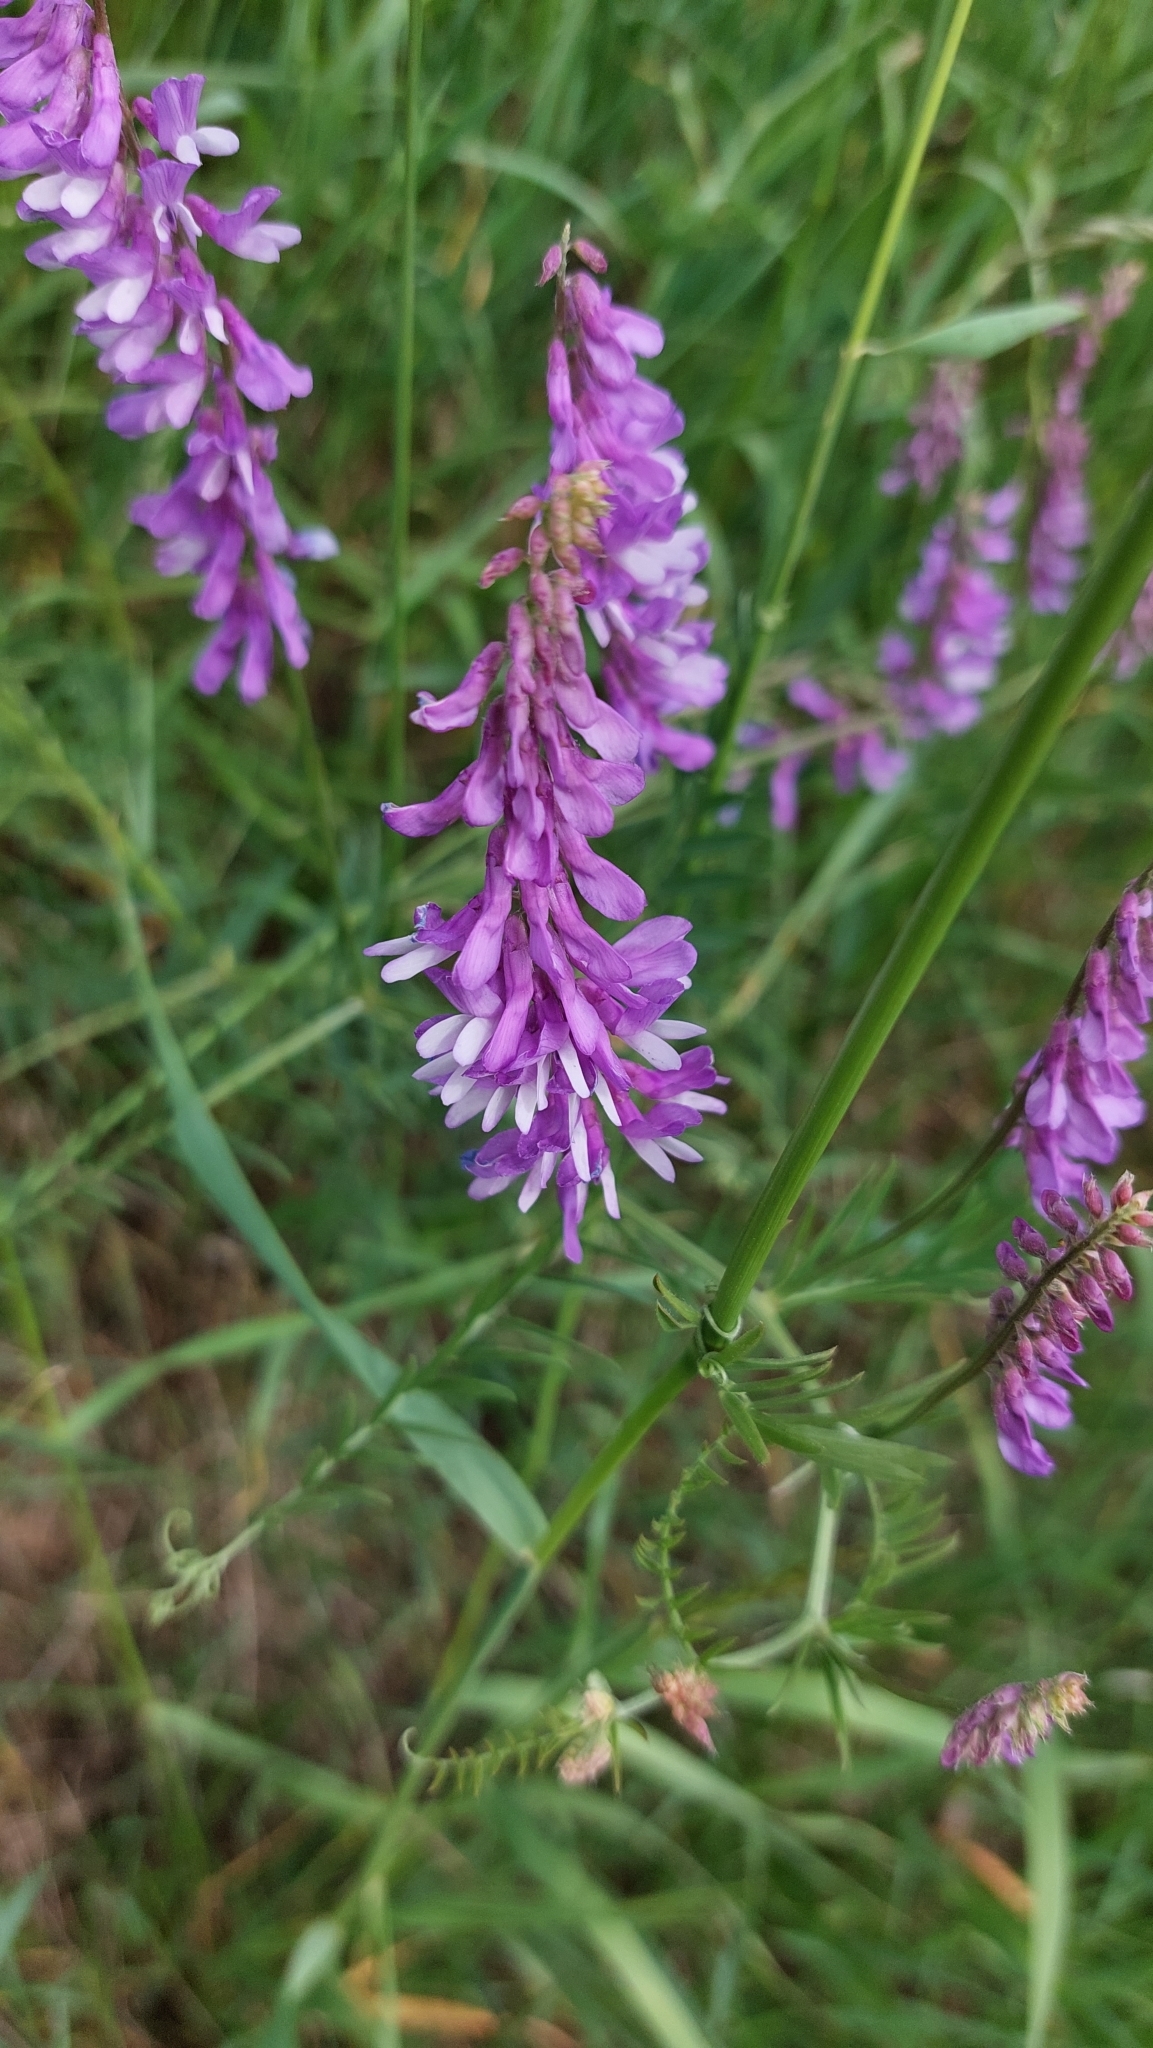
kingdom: Plantae
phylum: Tracheophyta
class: Magnoliopsida
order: Fabales
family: Fabaceae
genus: Vicia
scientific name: Vicia tenuifolia
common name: Fine-leaved vetch
